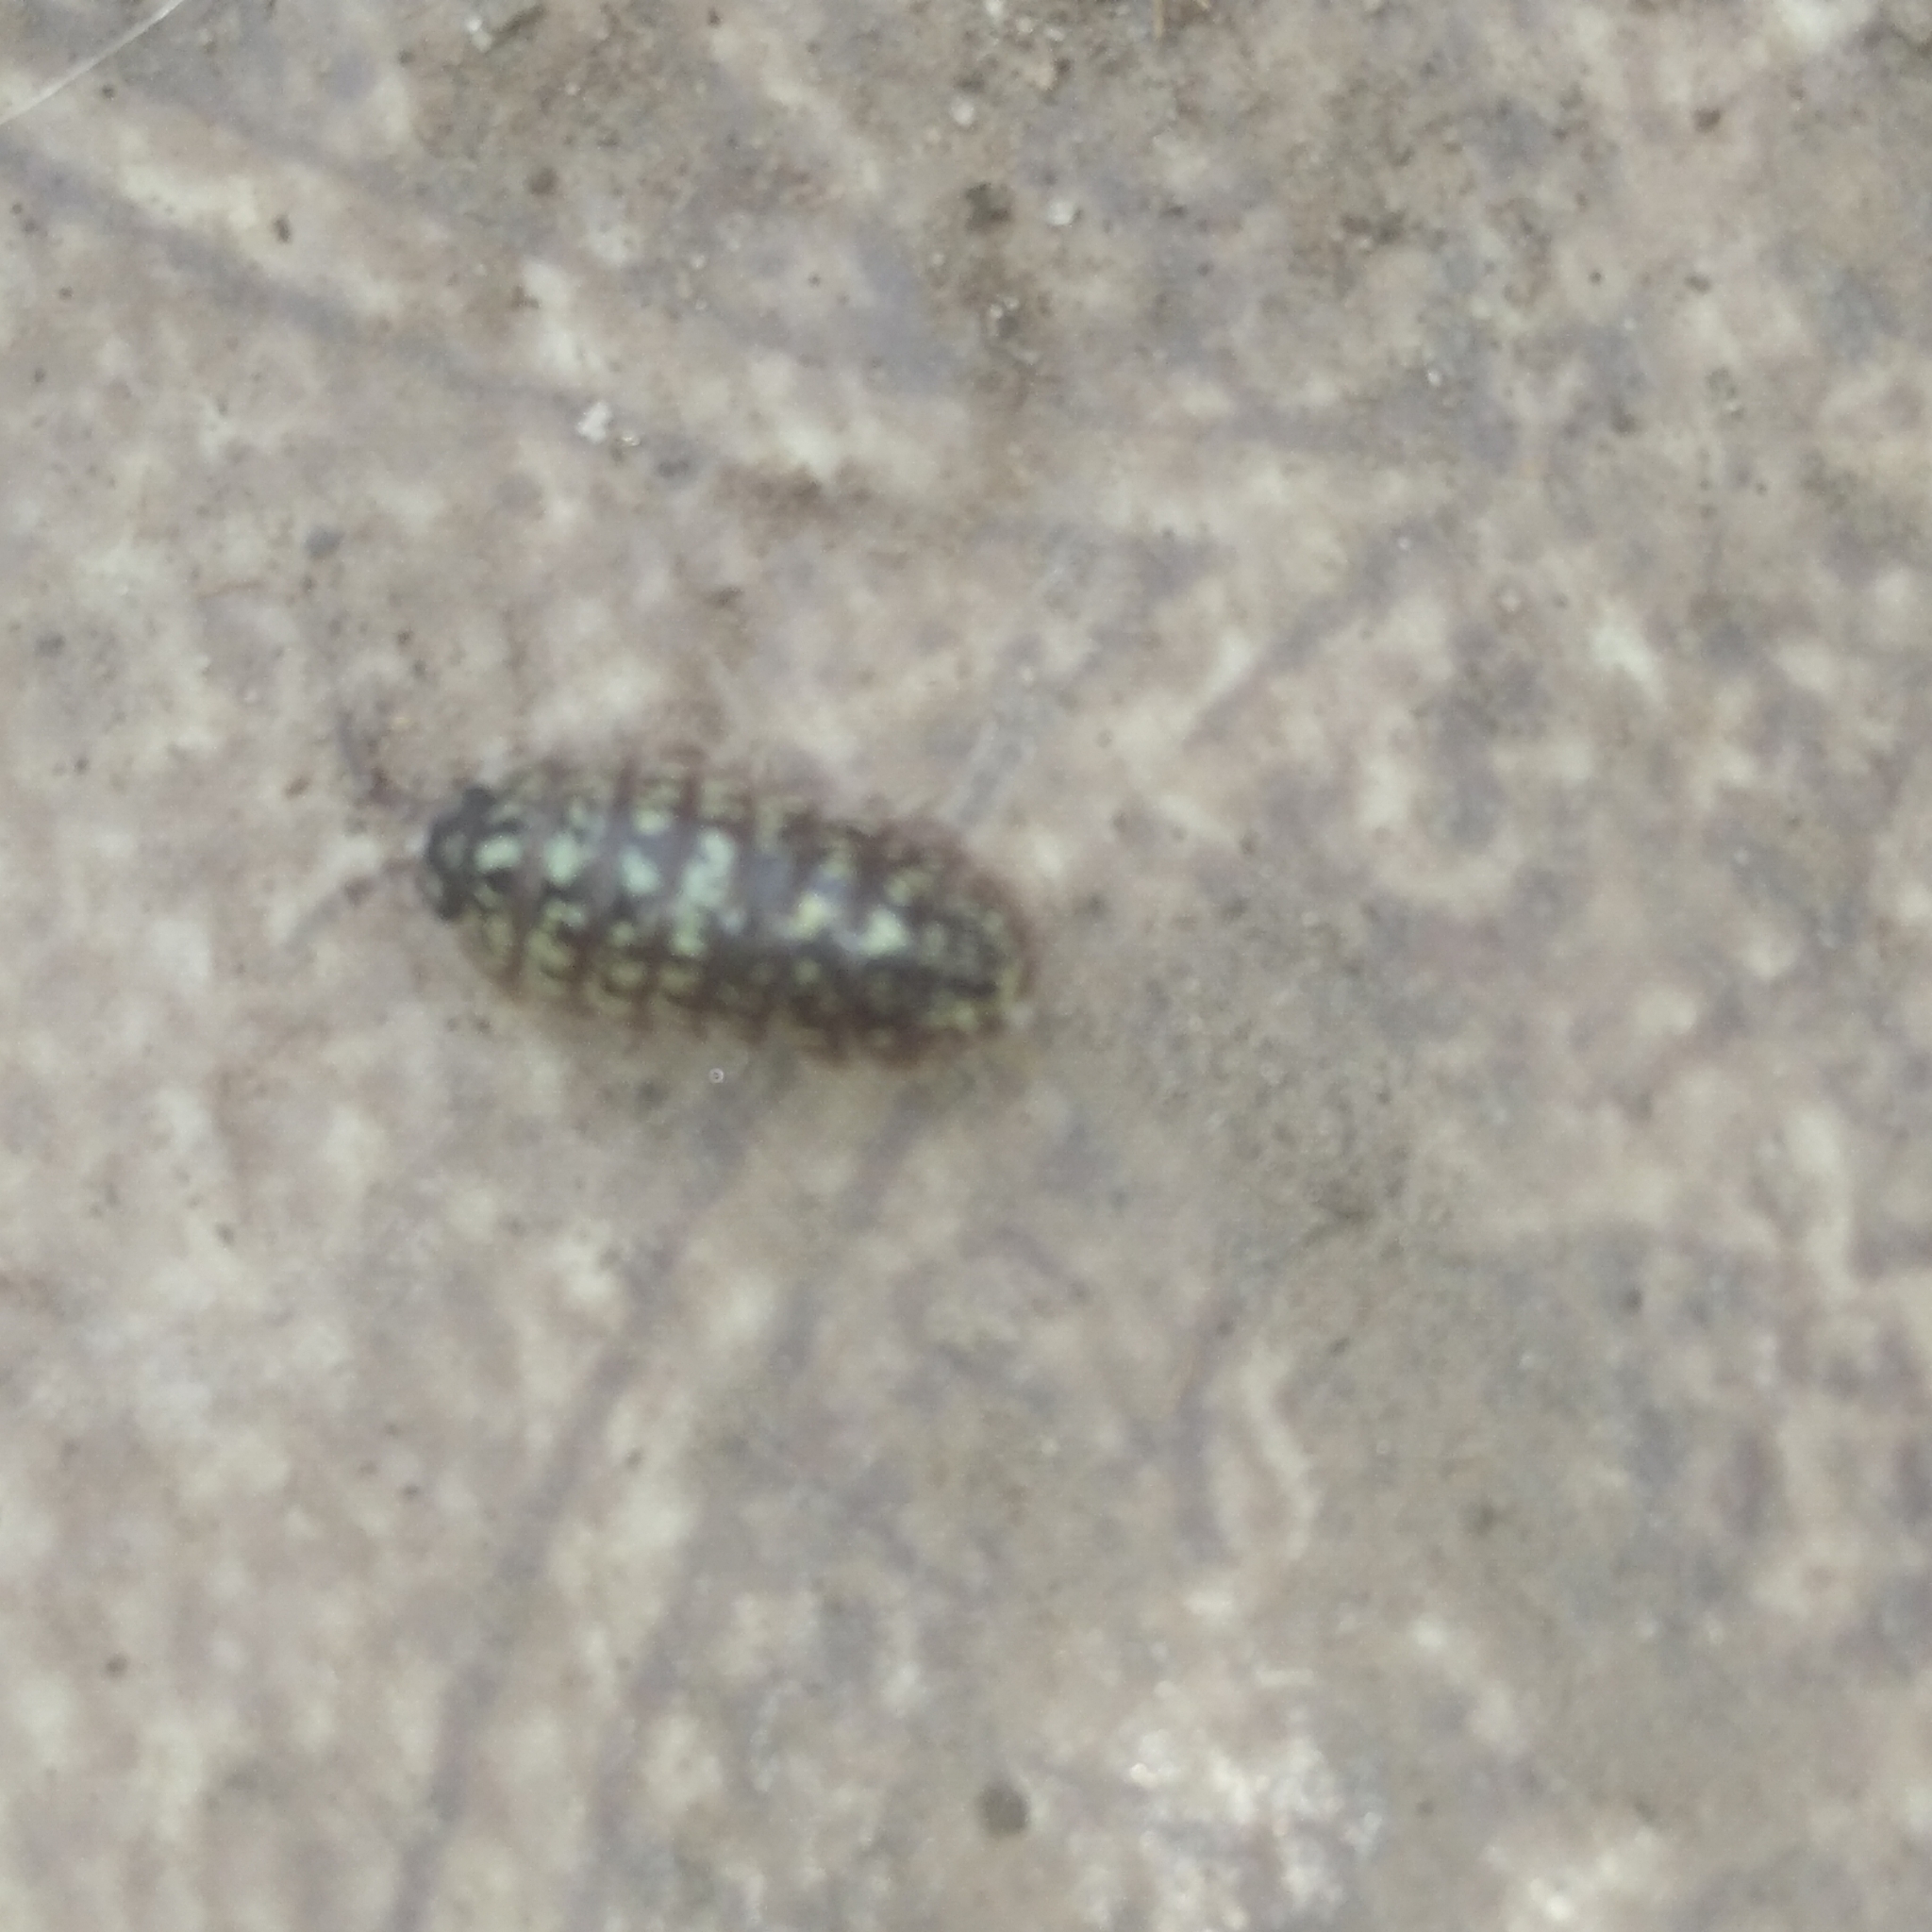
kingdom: Animalia
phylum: Arthropoda
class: Malacostraca
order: Isopoda
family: Armadillidiidae
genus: Armadillidium
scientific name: Armadillidium versicolor
